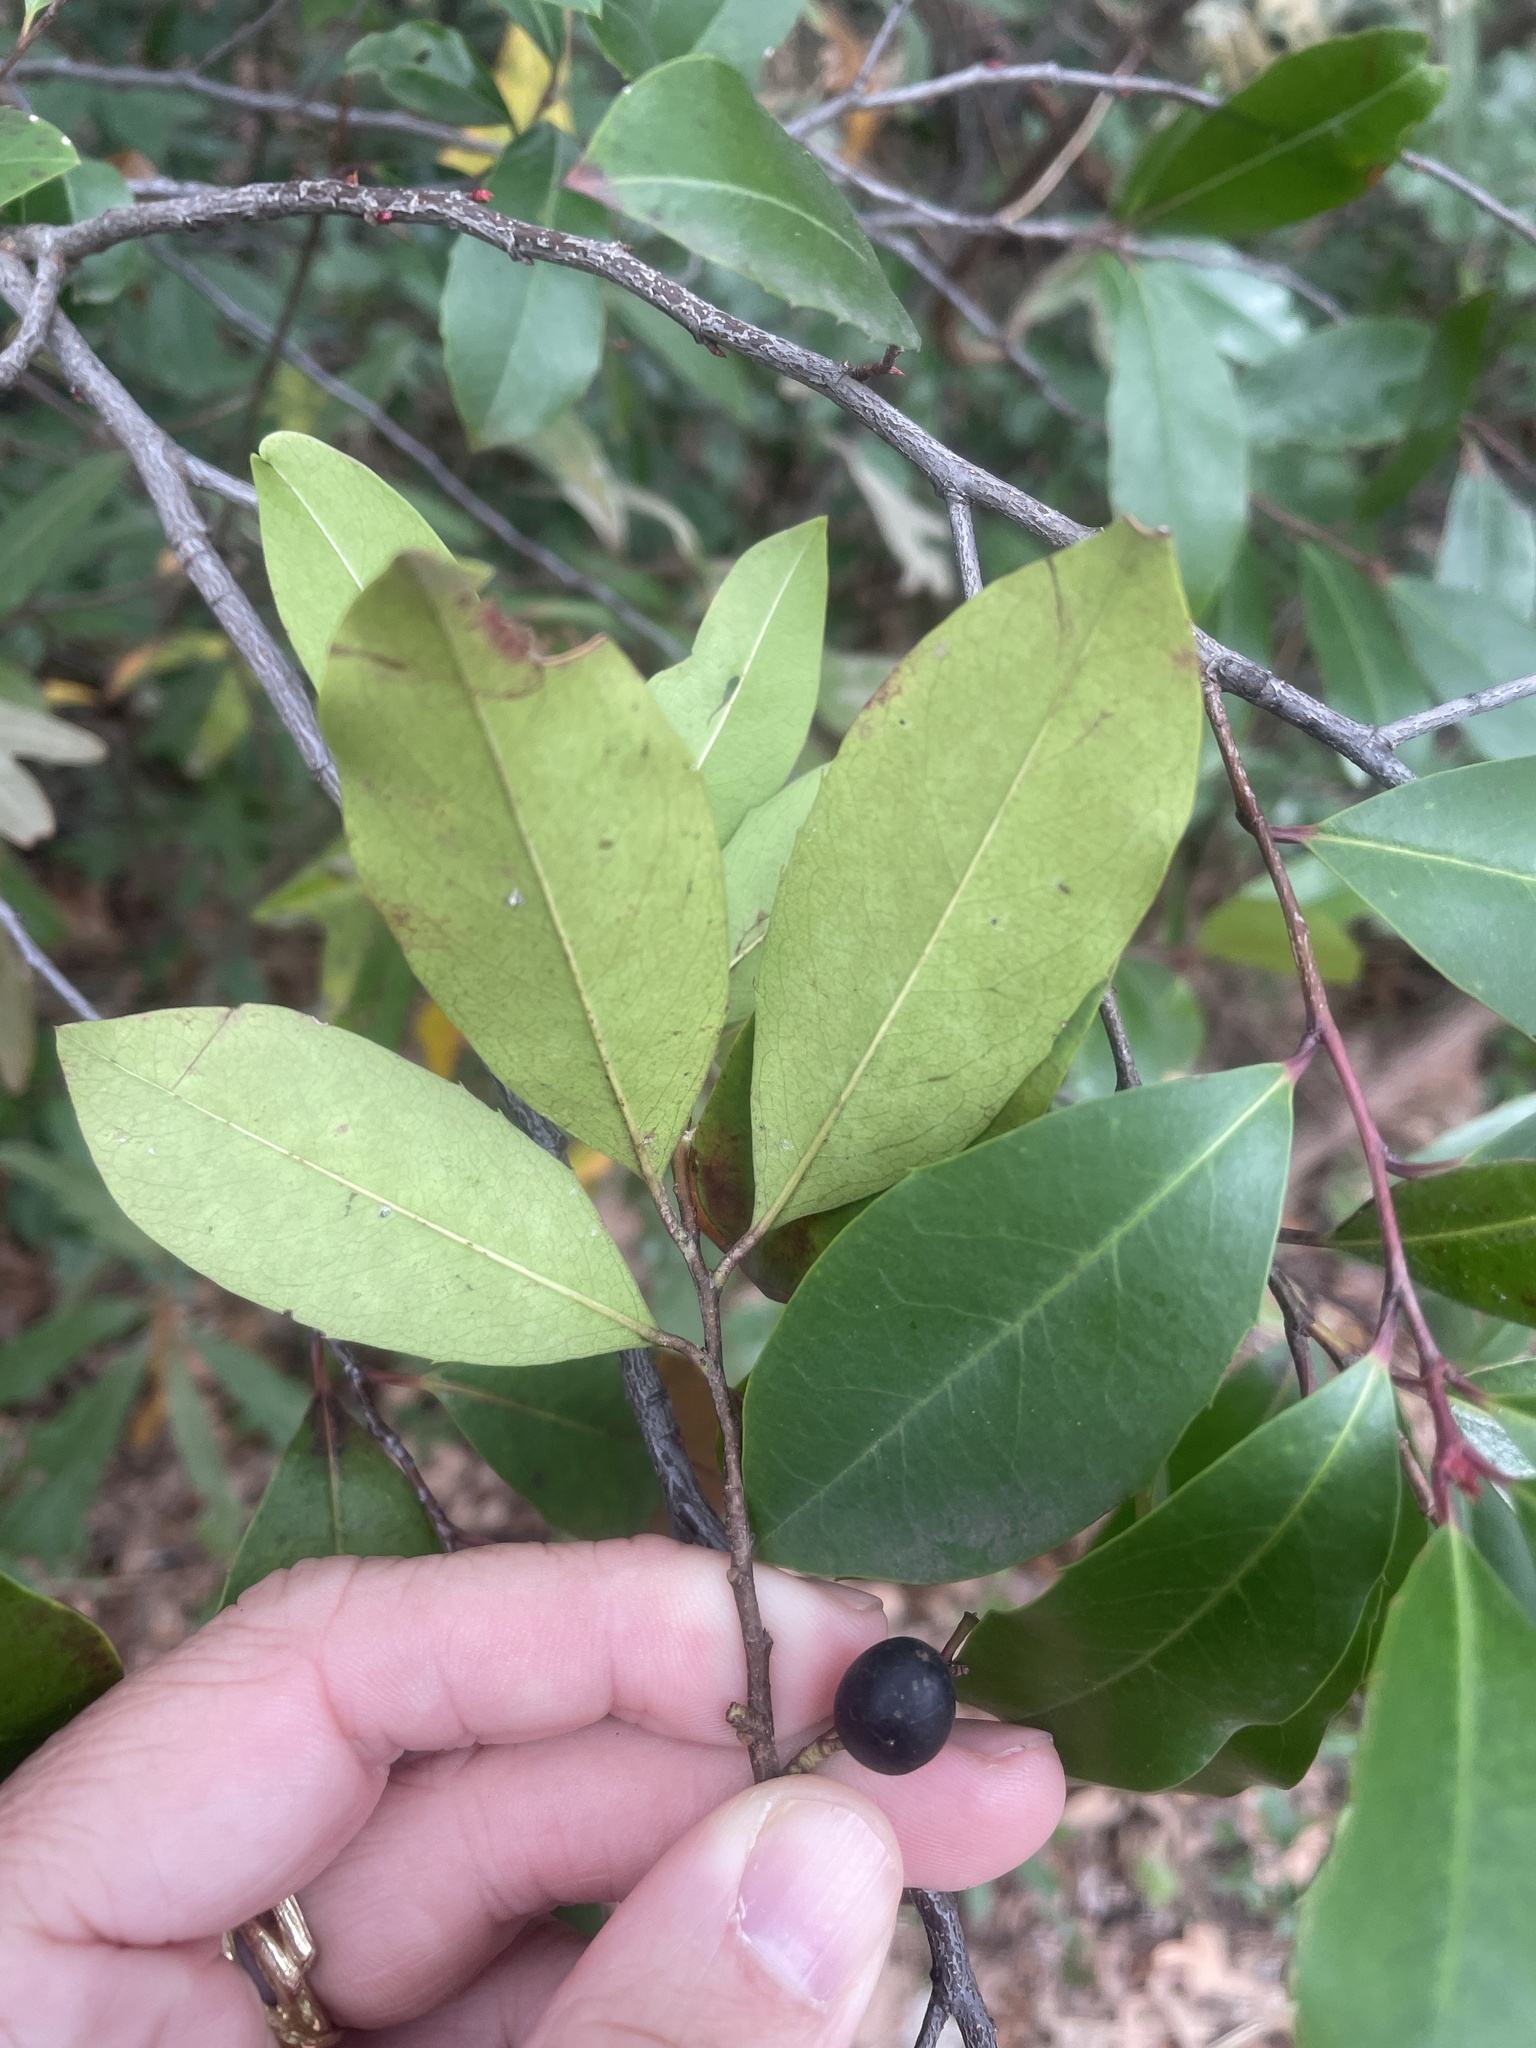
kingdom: Plantae
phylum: Tracheophyta
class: Magnoliopsida
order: Rosales
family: Rosaceae
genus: Prunus
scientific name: Prunus caroliniana
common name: Carolina laurel cherry
